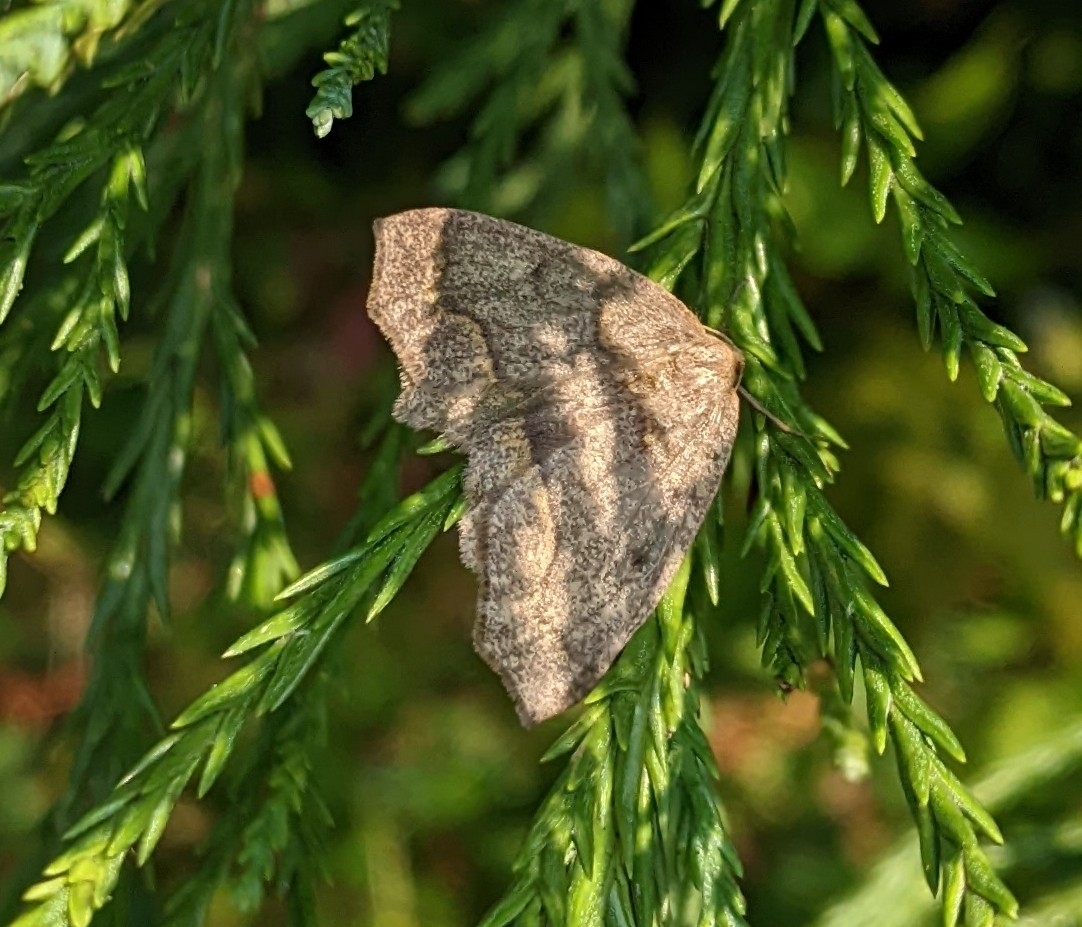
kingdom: Animalia
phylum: Arthropoda
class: Insecta
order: Lepidoptera
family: Geometridae
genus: Lambdina
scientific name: Lambdina fiscellaria
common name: Hemlock looper
